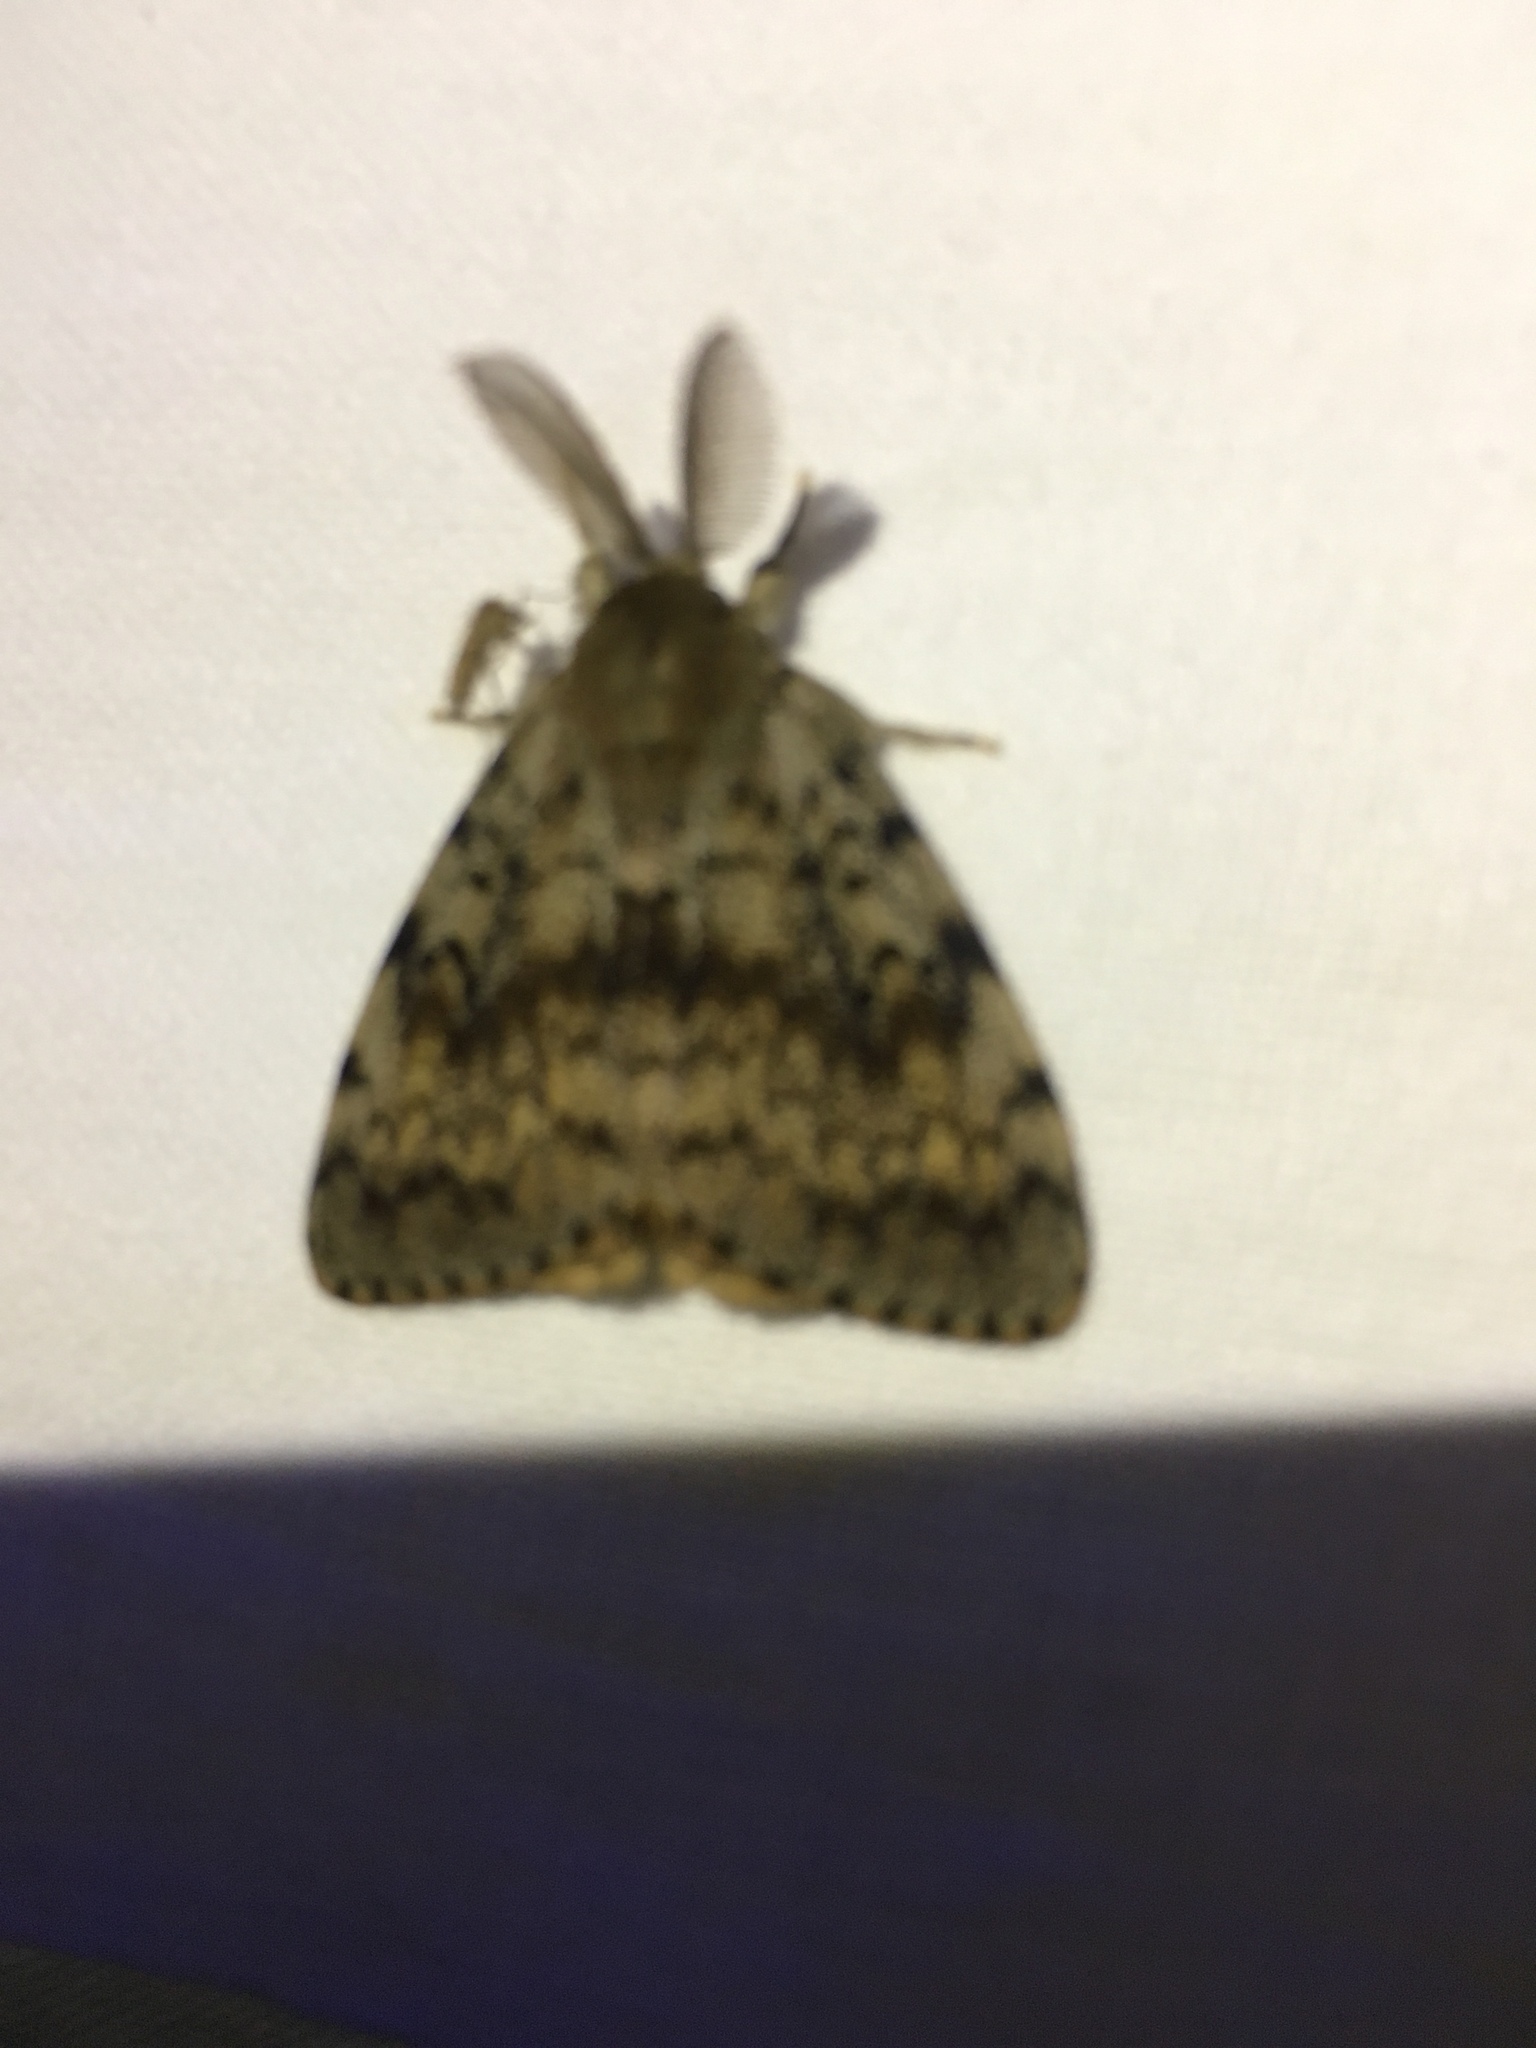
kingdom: Animalia
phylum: Arthropoda
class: Insecta
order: Lepidoptera
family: Erebidae
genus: Lymantria
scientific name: Lymantria dispar
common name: Gypsy moth
